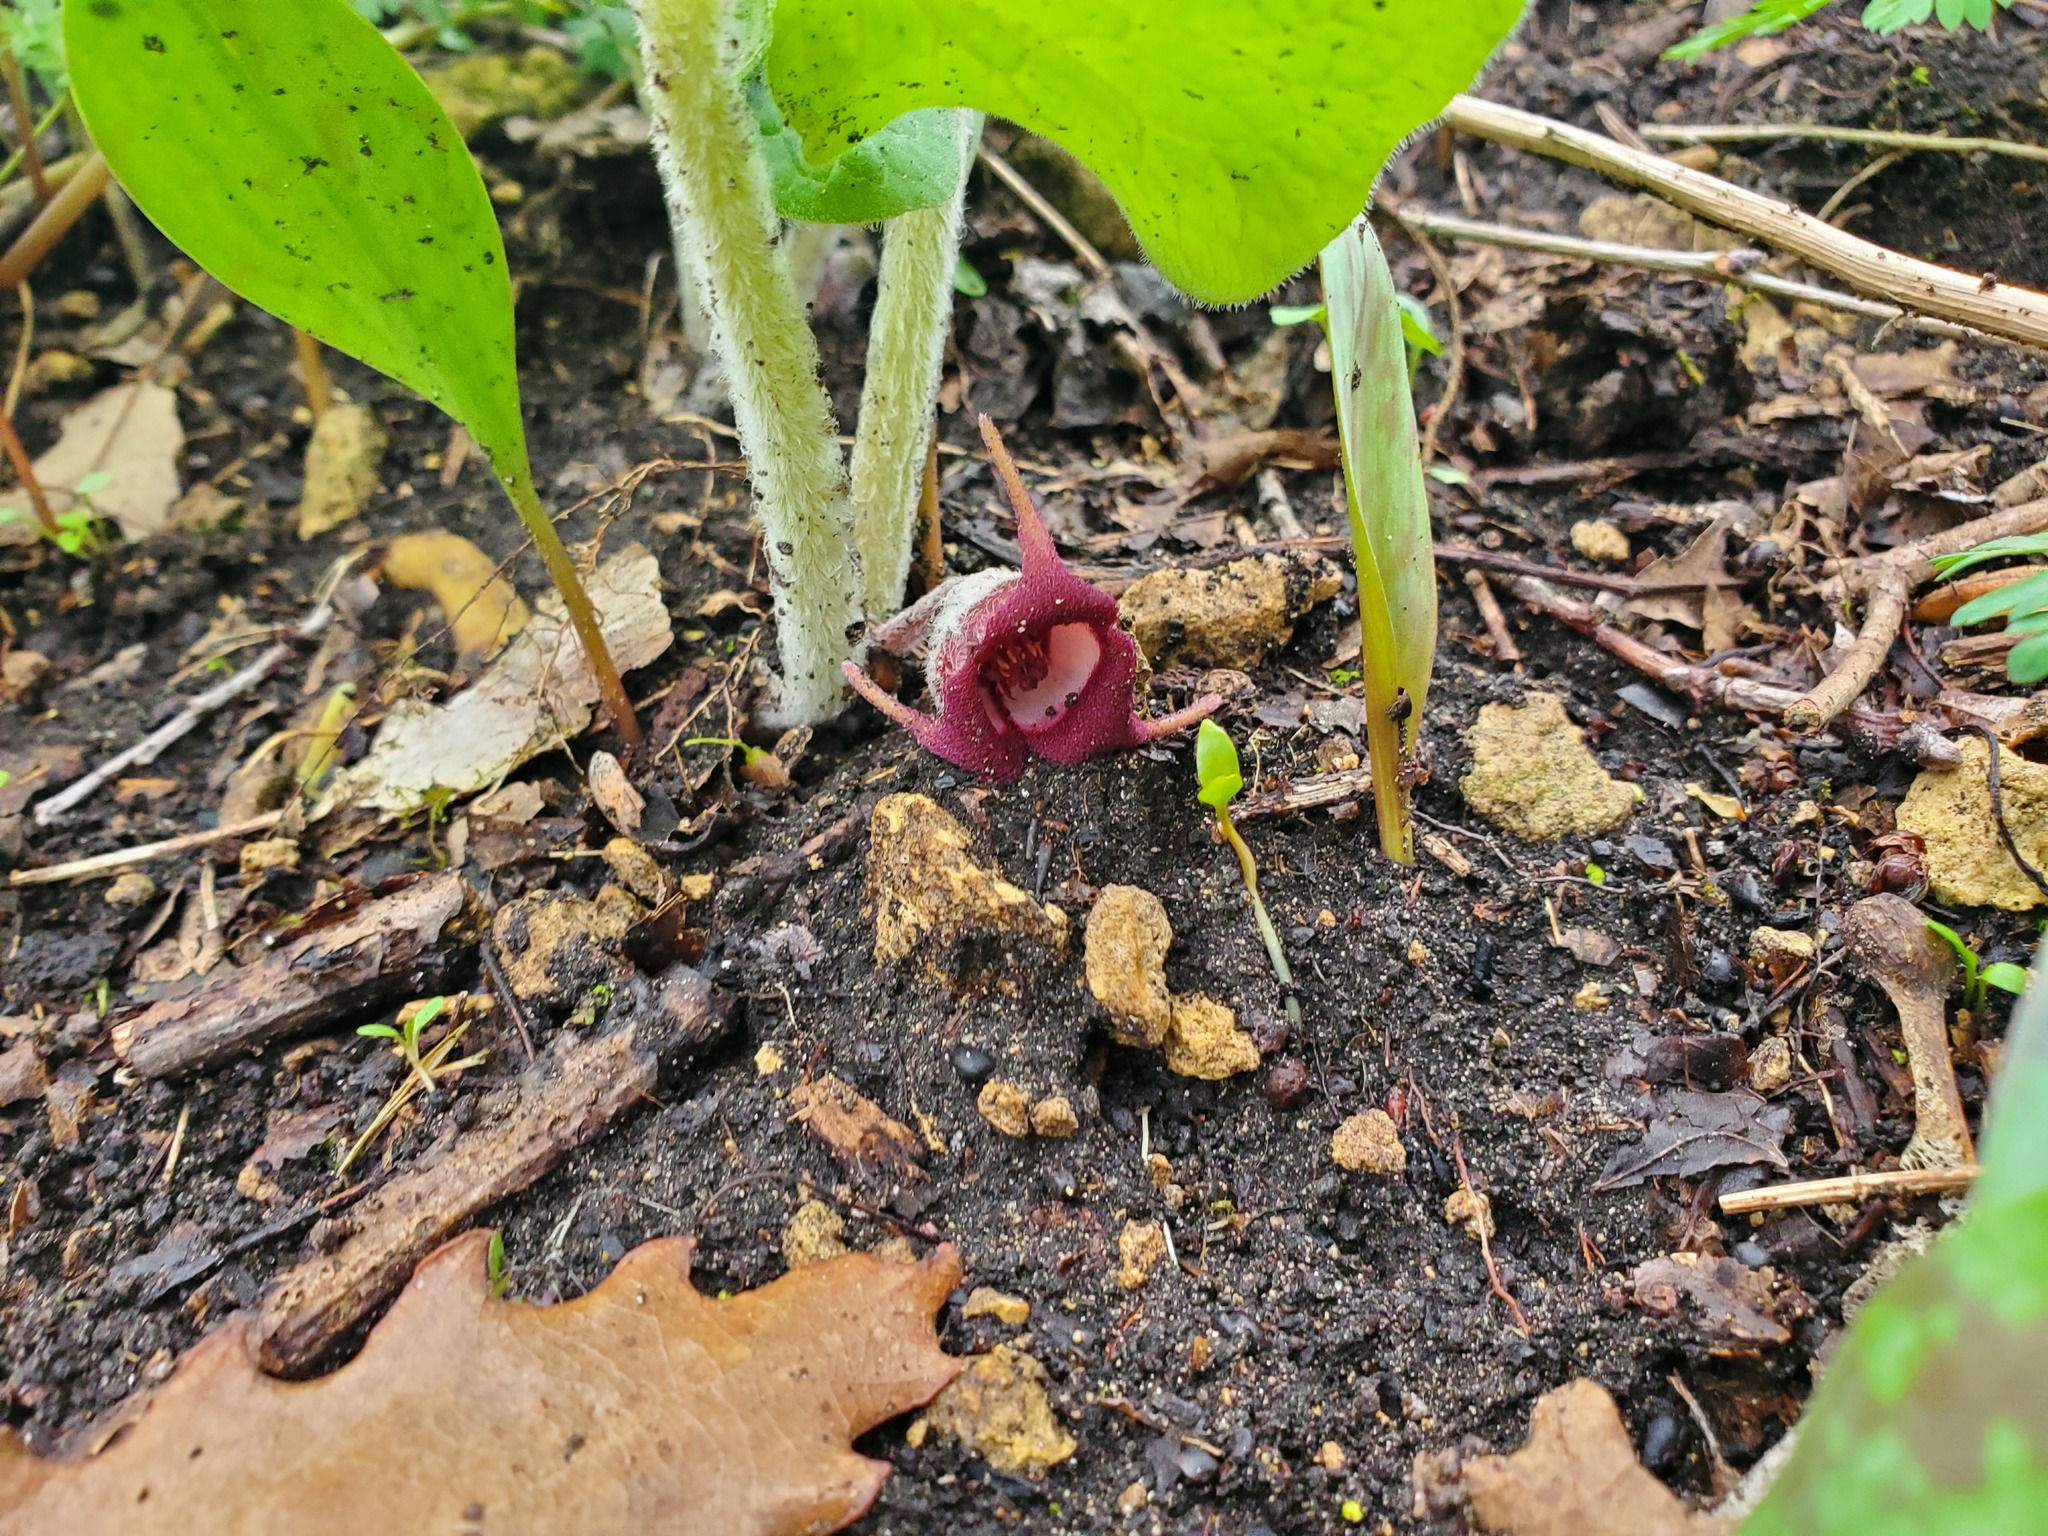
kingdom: Plantae
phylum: Tracheophyta
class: Magnoliopsida
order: Piperales
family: Aristolochiaceae
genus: Asarum
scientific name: Asarum canadense
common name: Wild ginger
